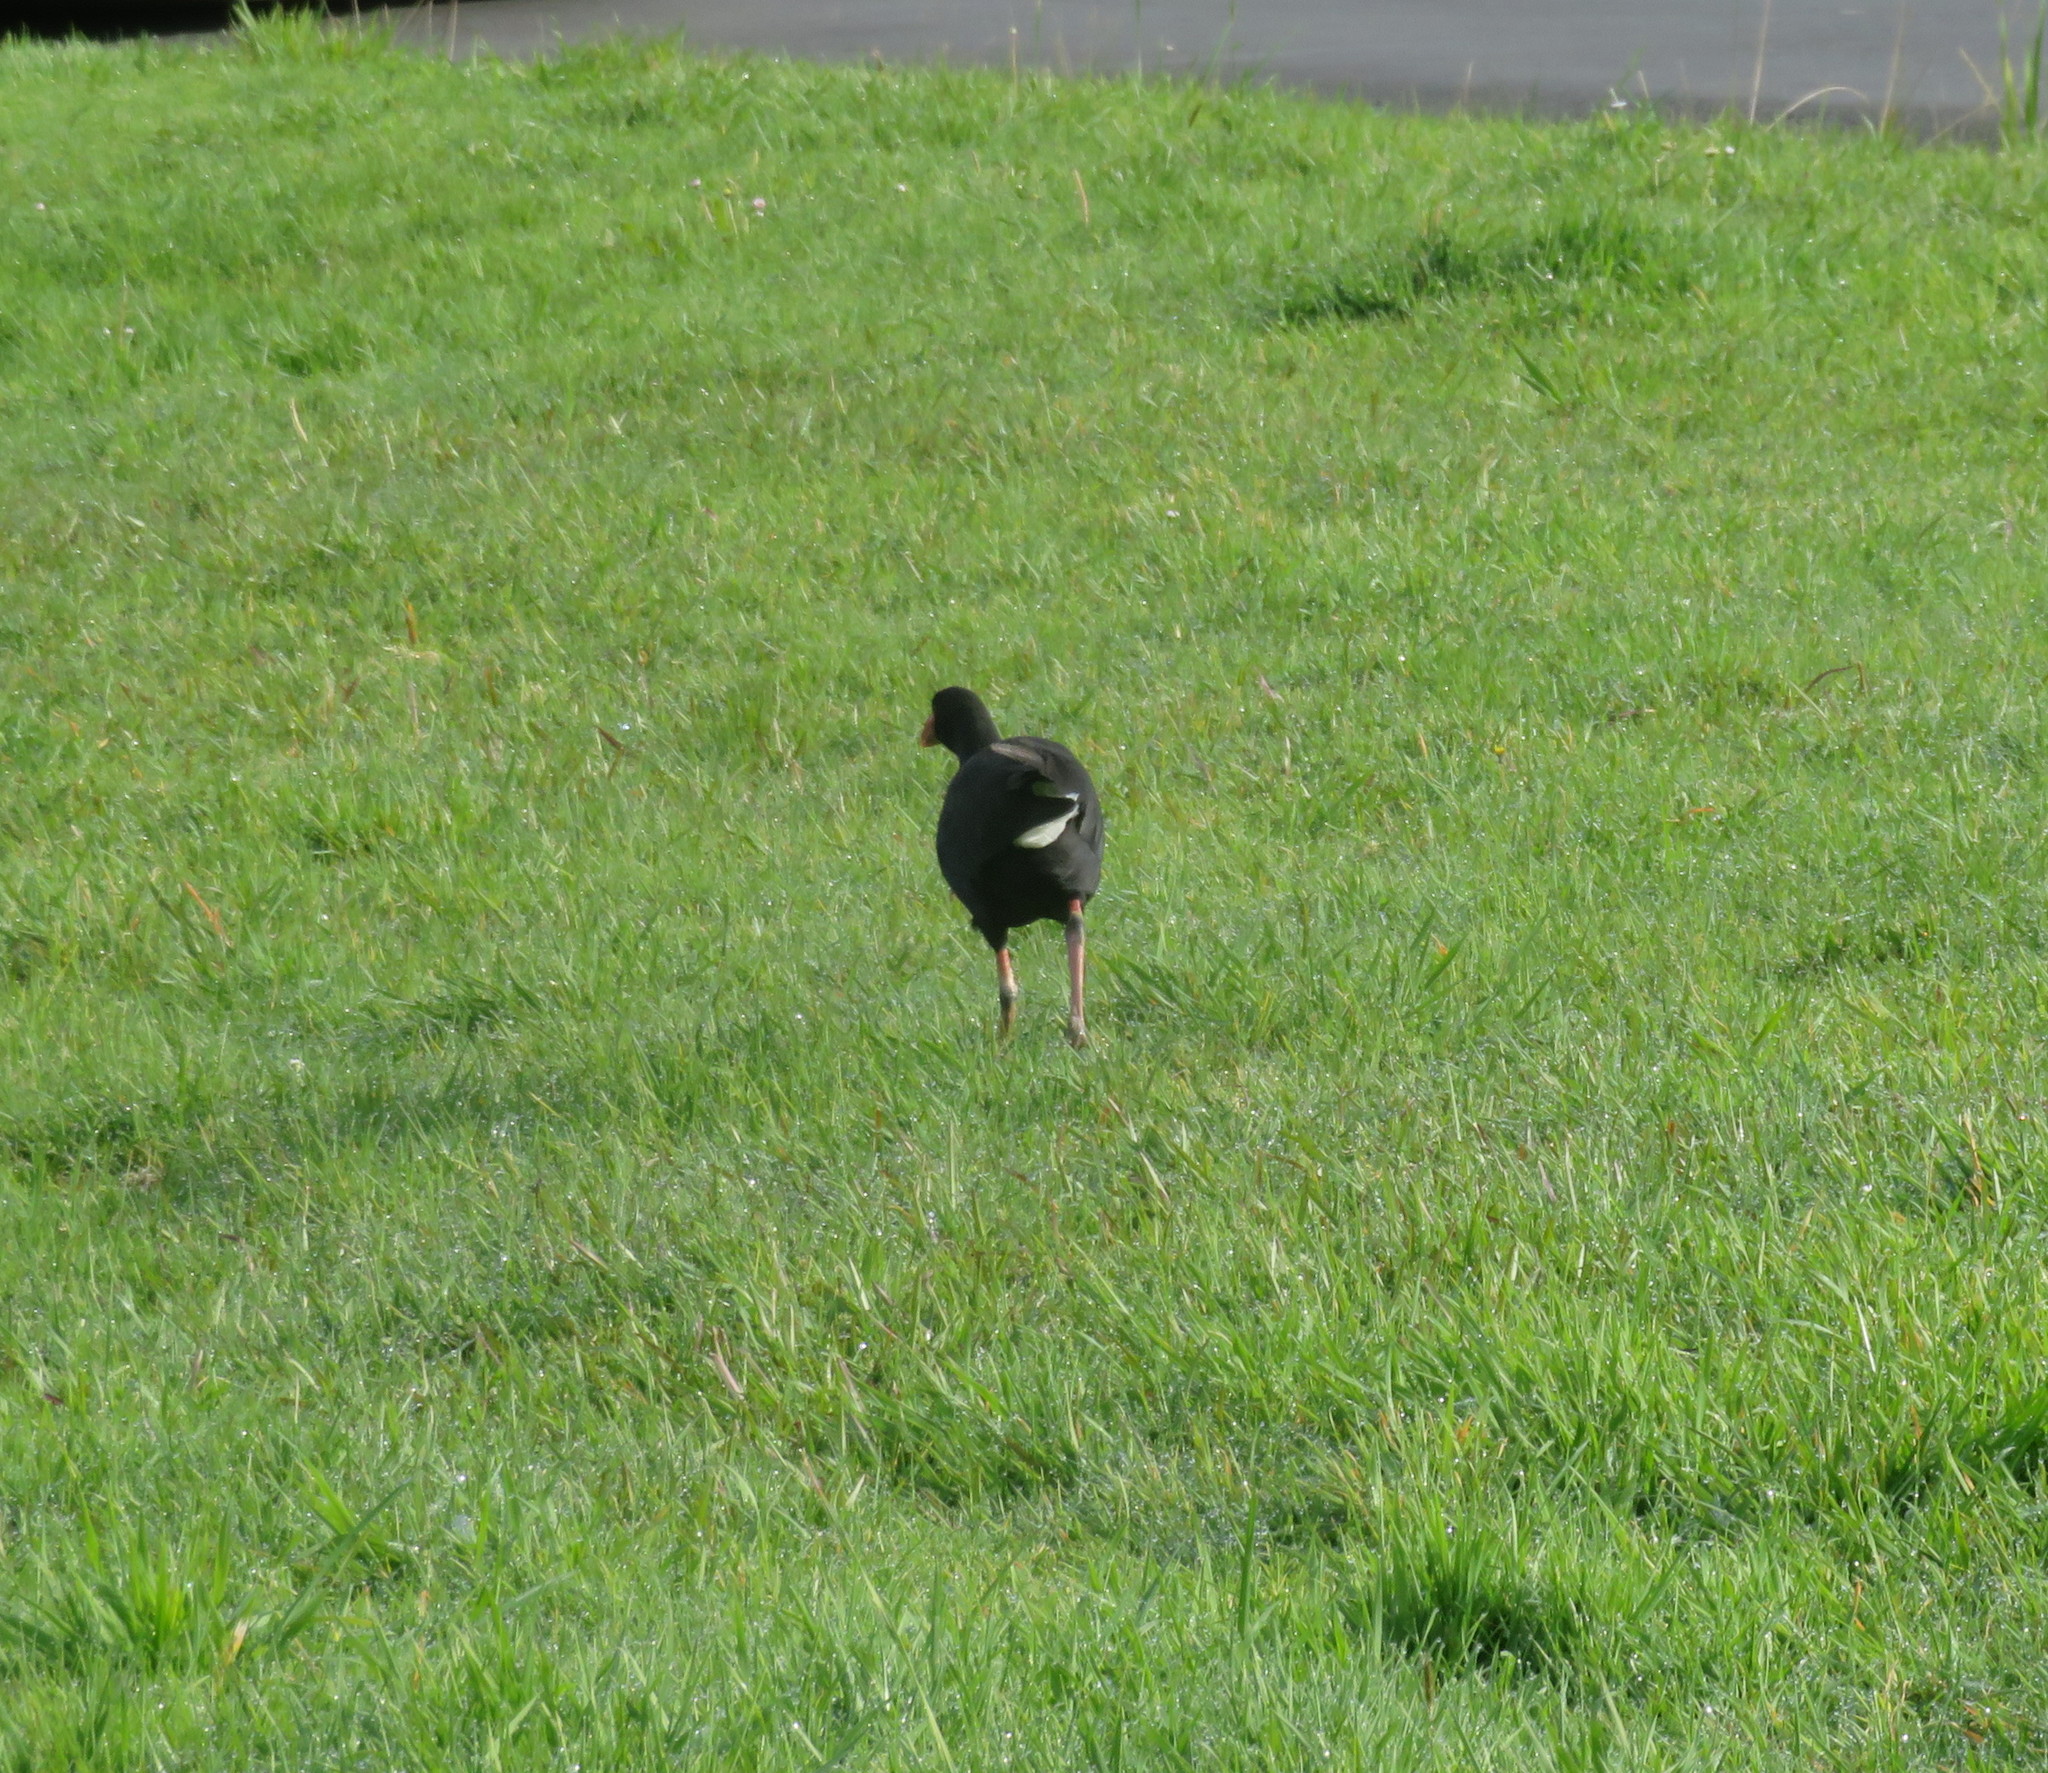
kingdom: Animalia
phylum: Chordata
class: Aves
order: Gruiformes
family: Rallidae
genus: Porphyrio
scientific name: Porphyrio melanotus
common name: Australasian swamphen
